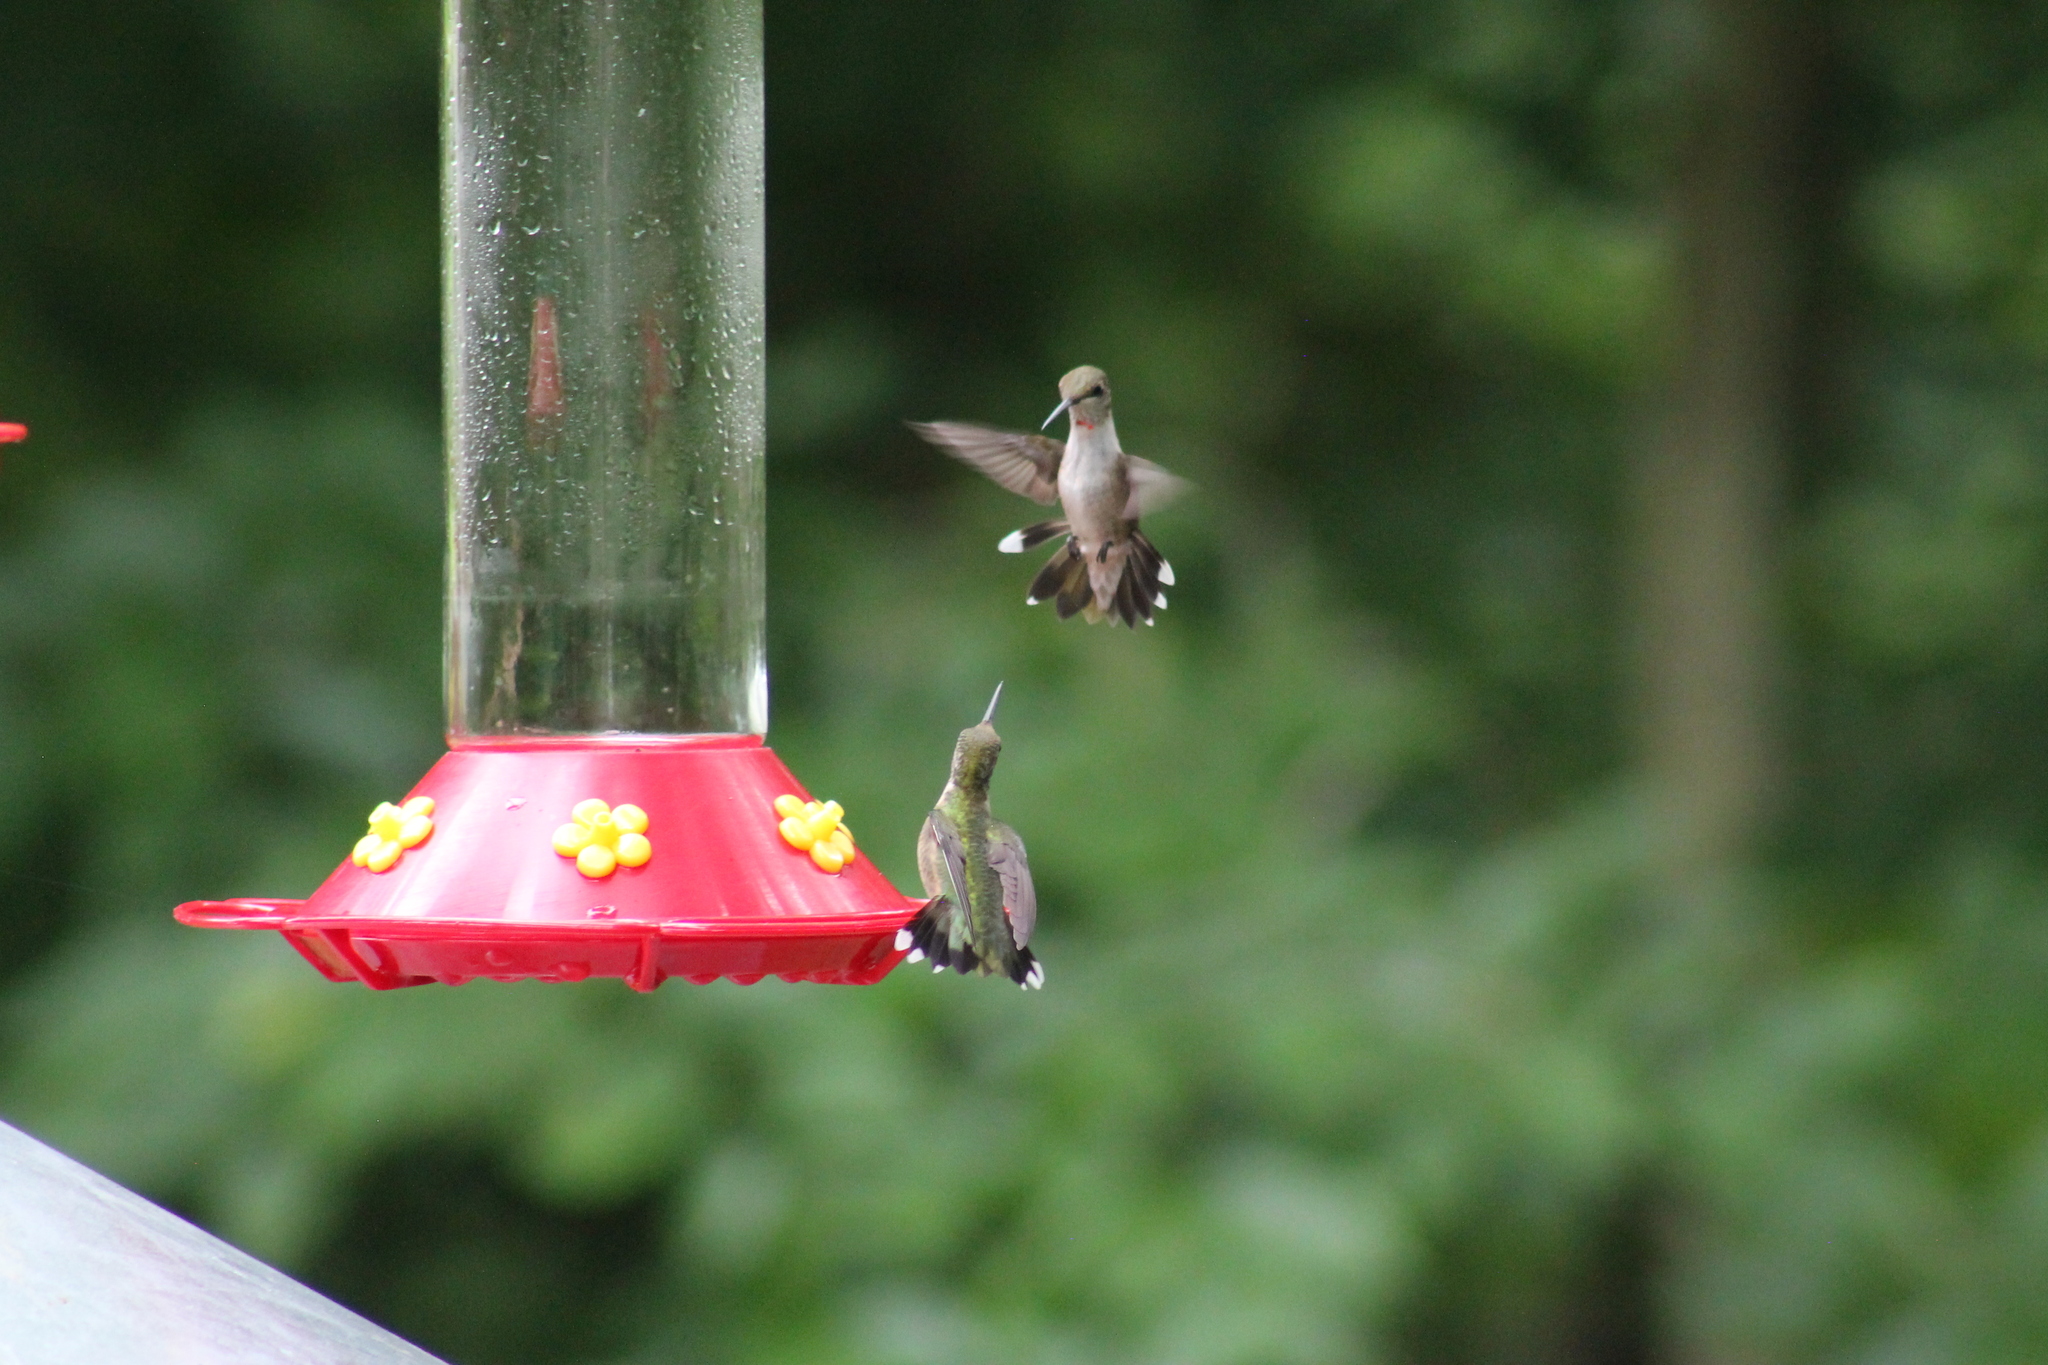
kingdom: Animalia
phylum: Chordata
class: Aves
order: Apodiformes
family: Trochilidae
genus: Archilochus
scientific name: Archilochus colubris
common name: Ruby-throated hummingbird
